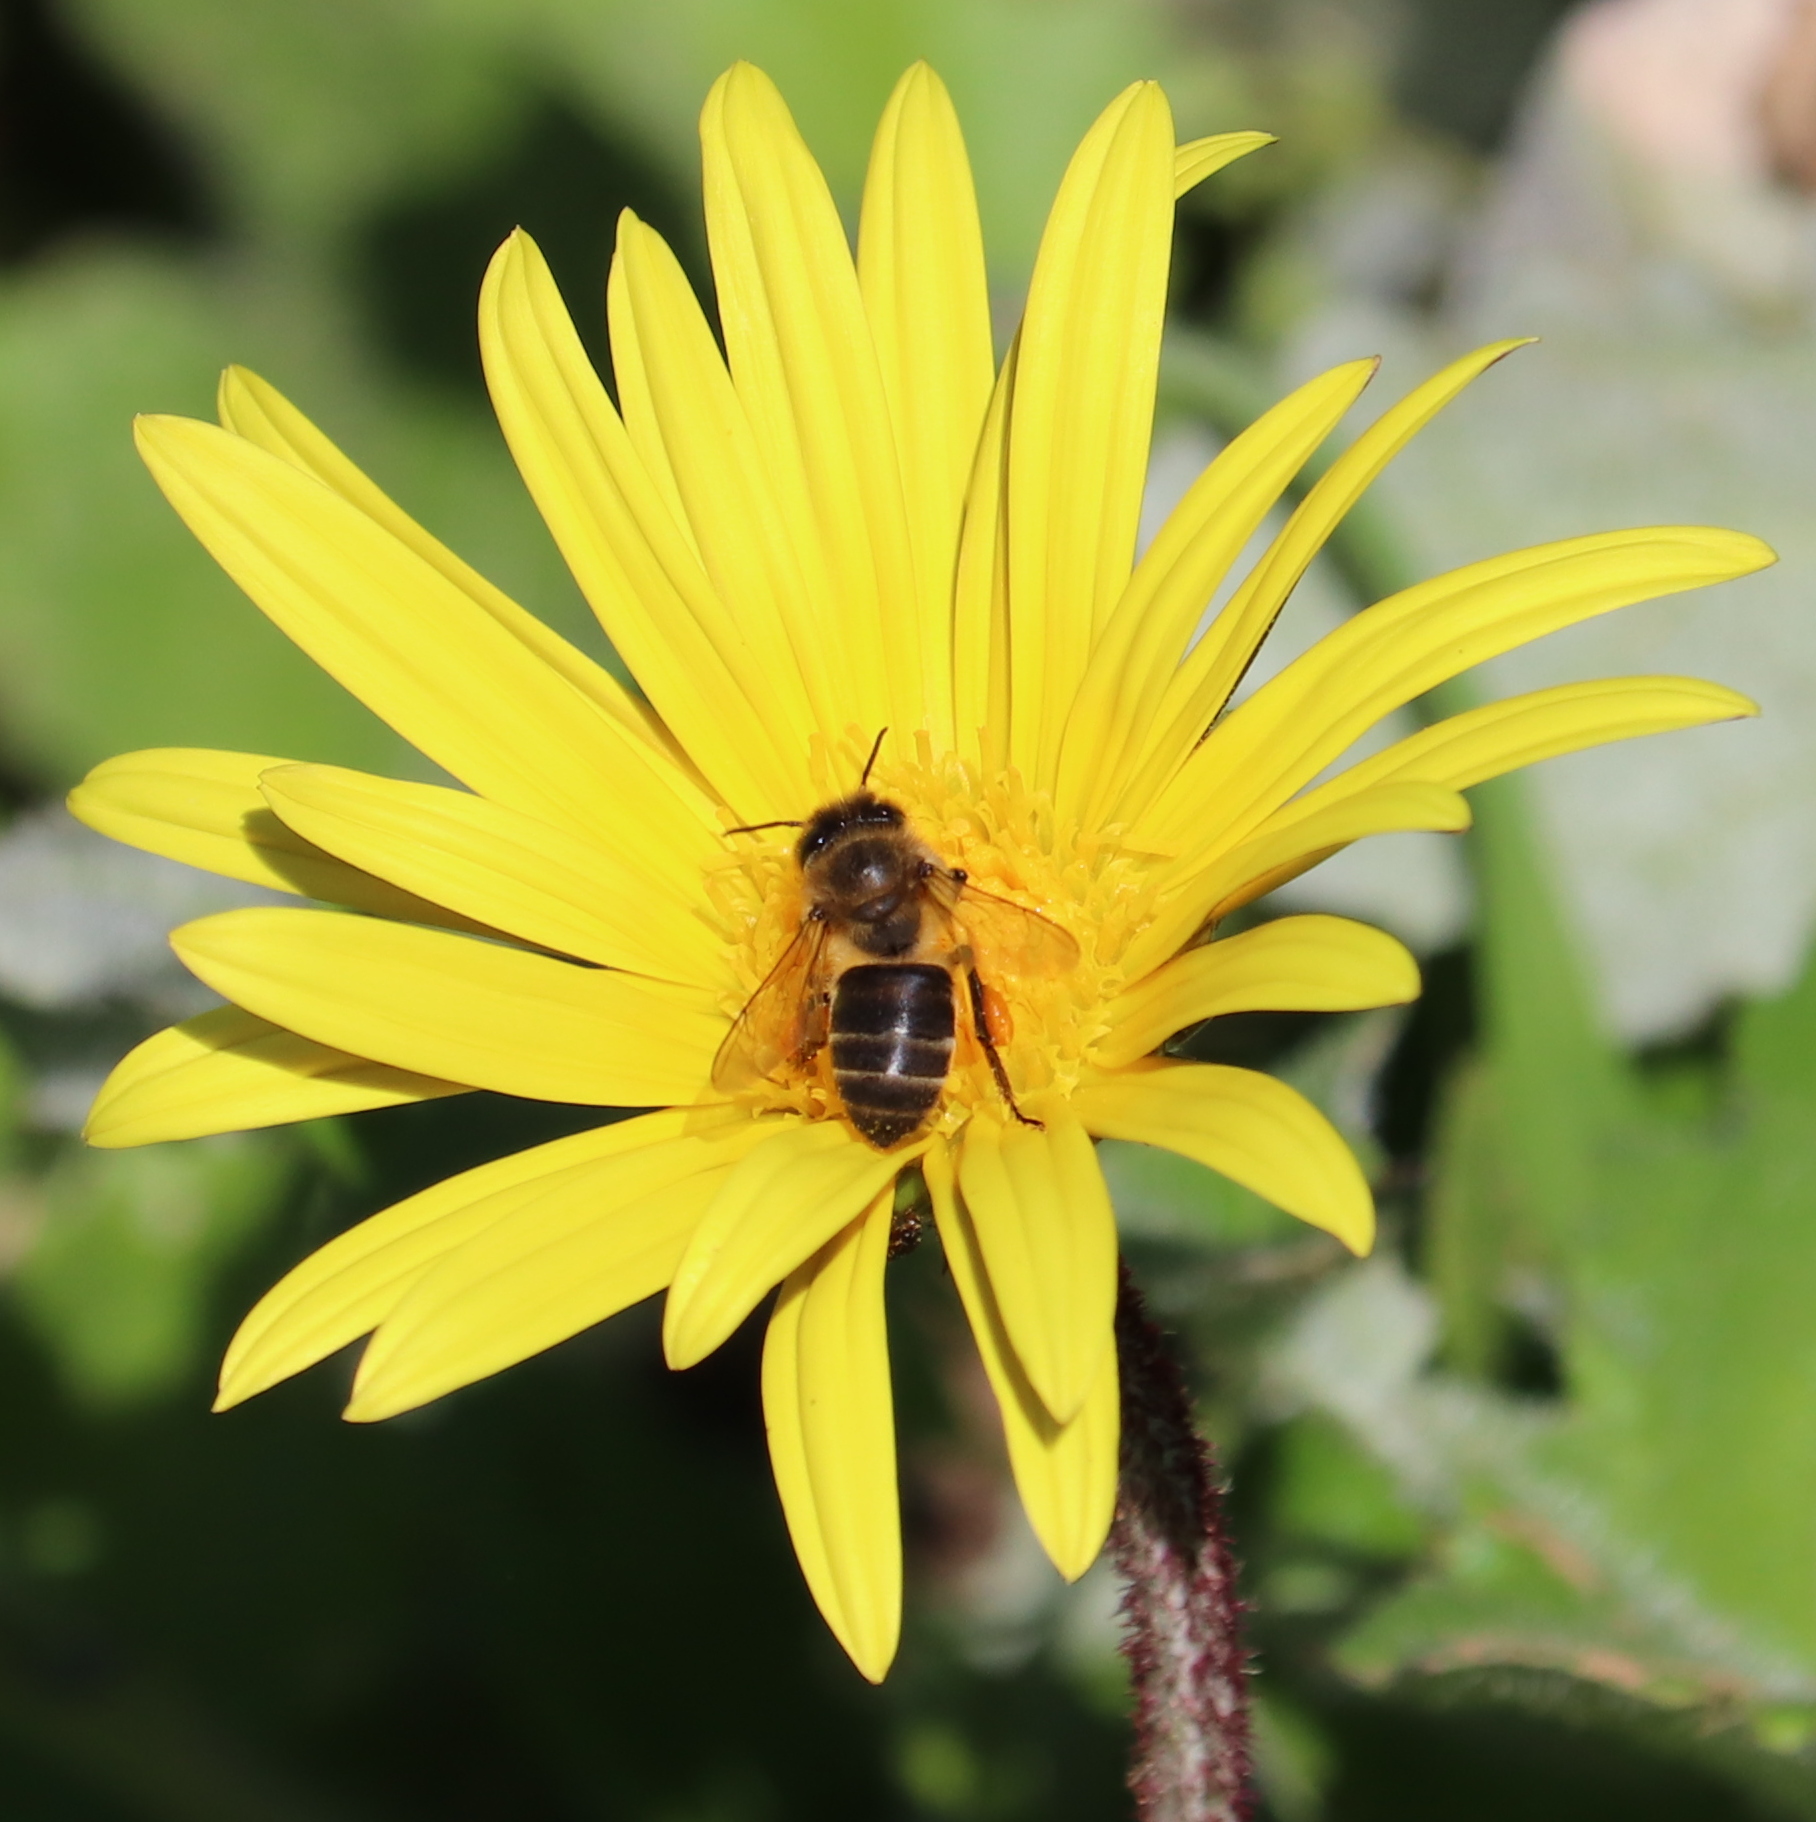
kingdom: Animalia
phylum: Arthropoda
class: Insecta
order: Hymenoptera
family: Apidae
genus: Apis
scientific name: Apis mellifera
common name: Honey bee
